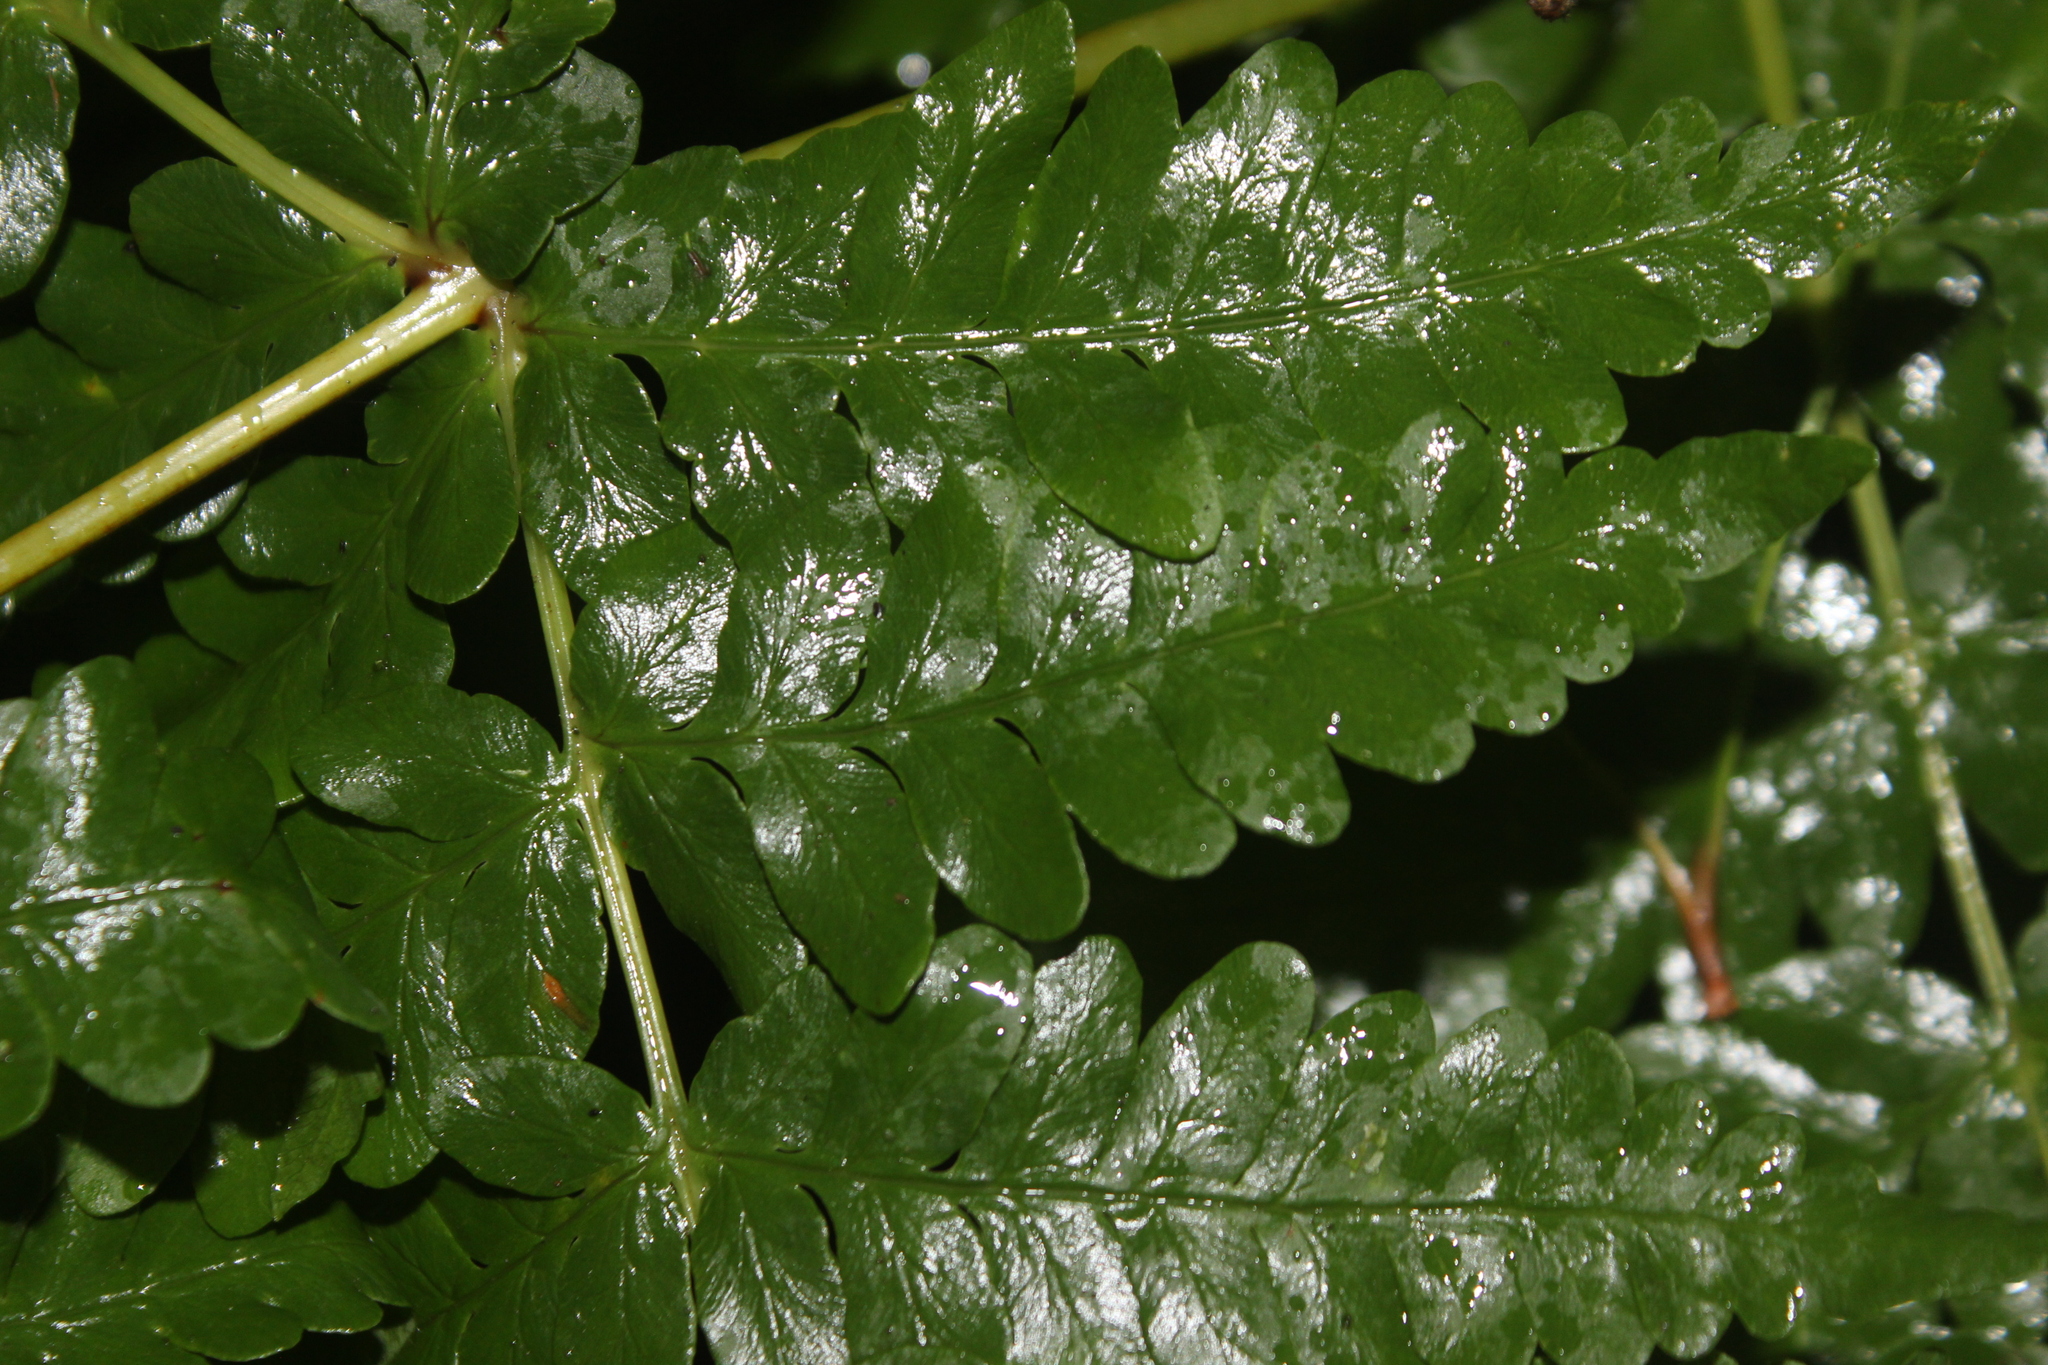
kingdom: Plantae
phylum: Tracheophyta
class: Polypodiopsida
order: Polypodiales
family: Dennstaedtiaceae
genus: Histiopteris
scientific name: Histiopteris incisa
